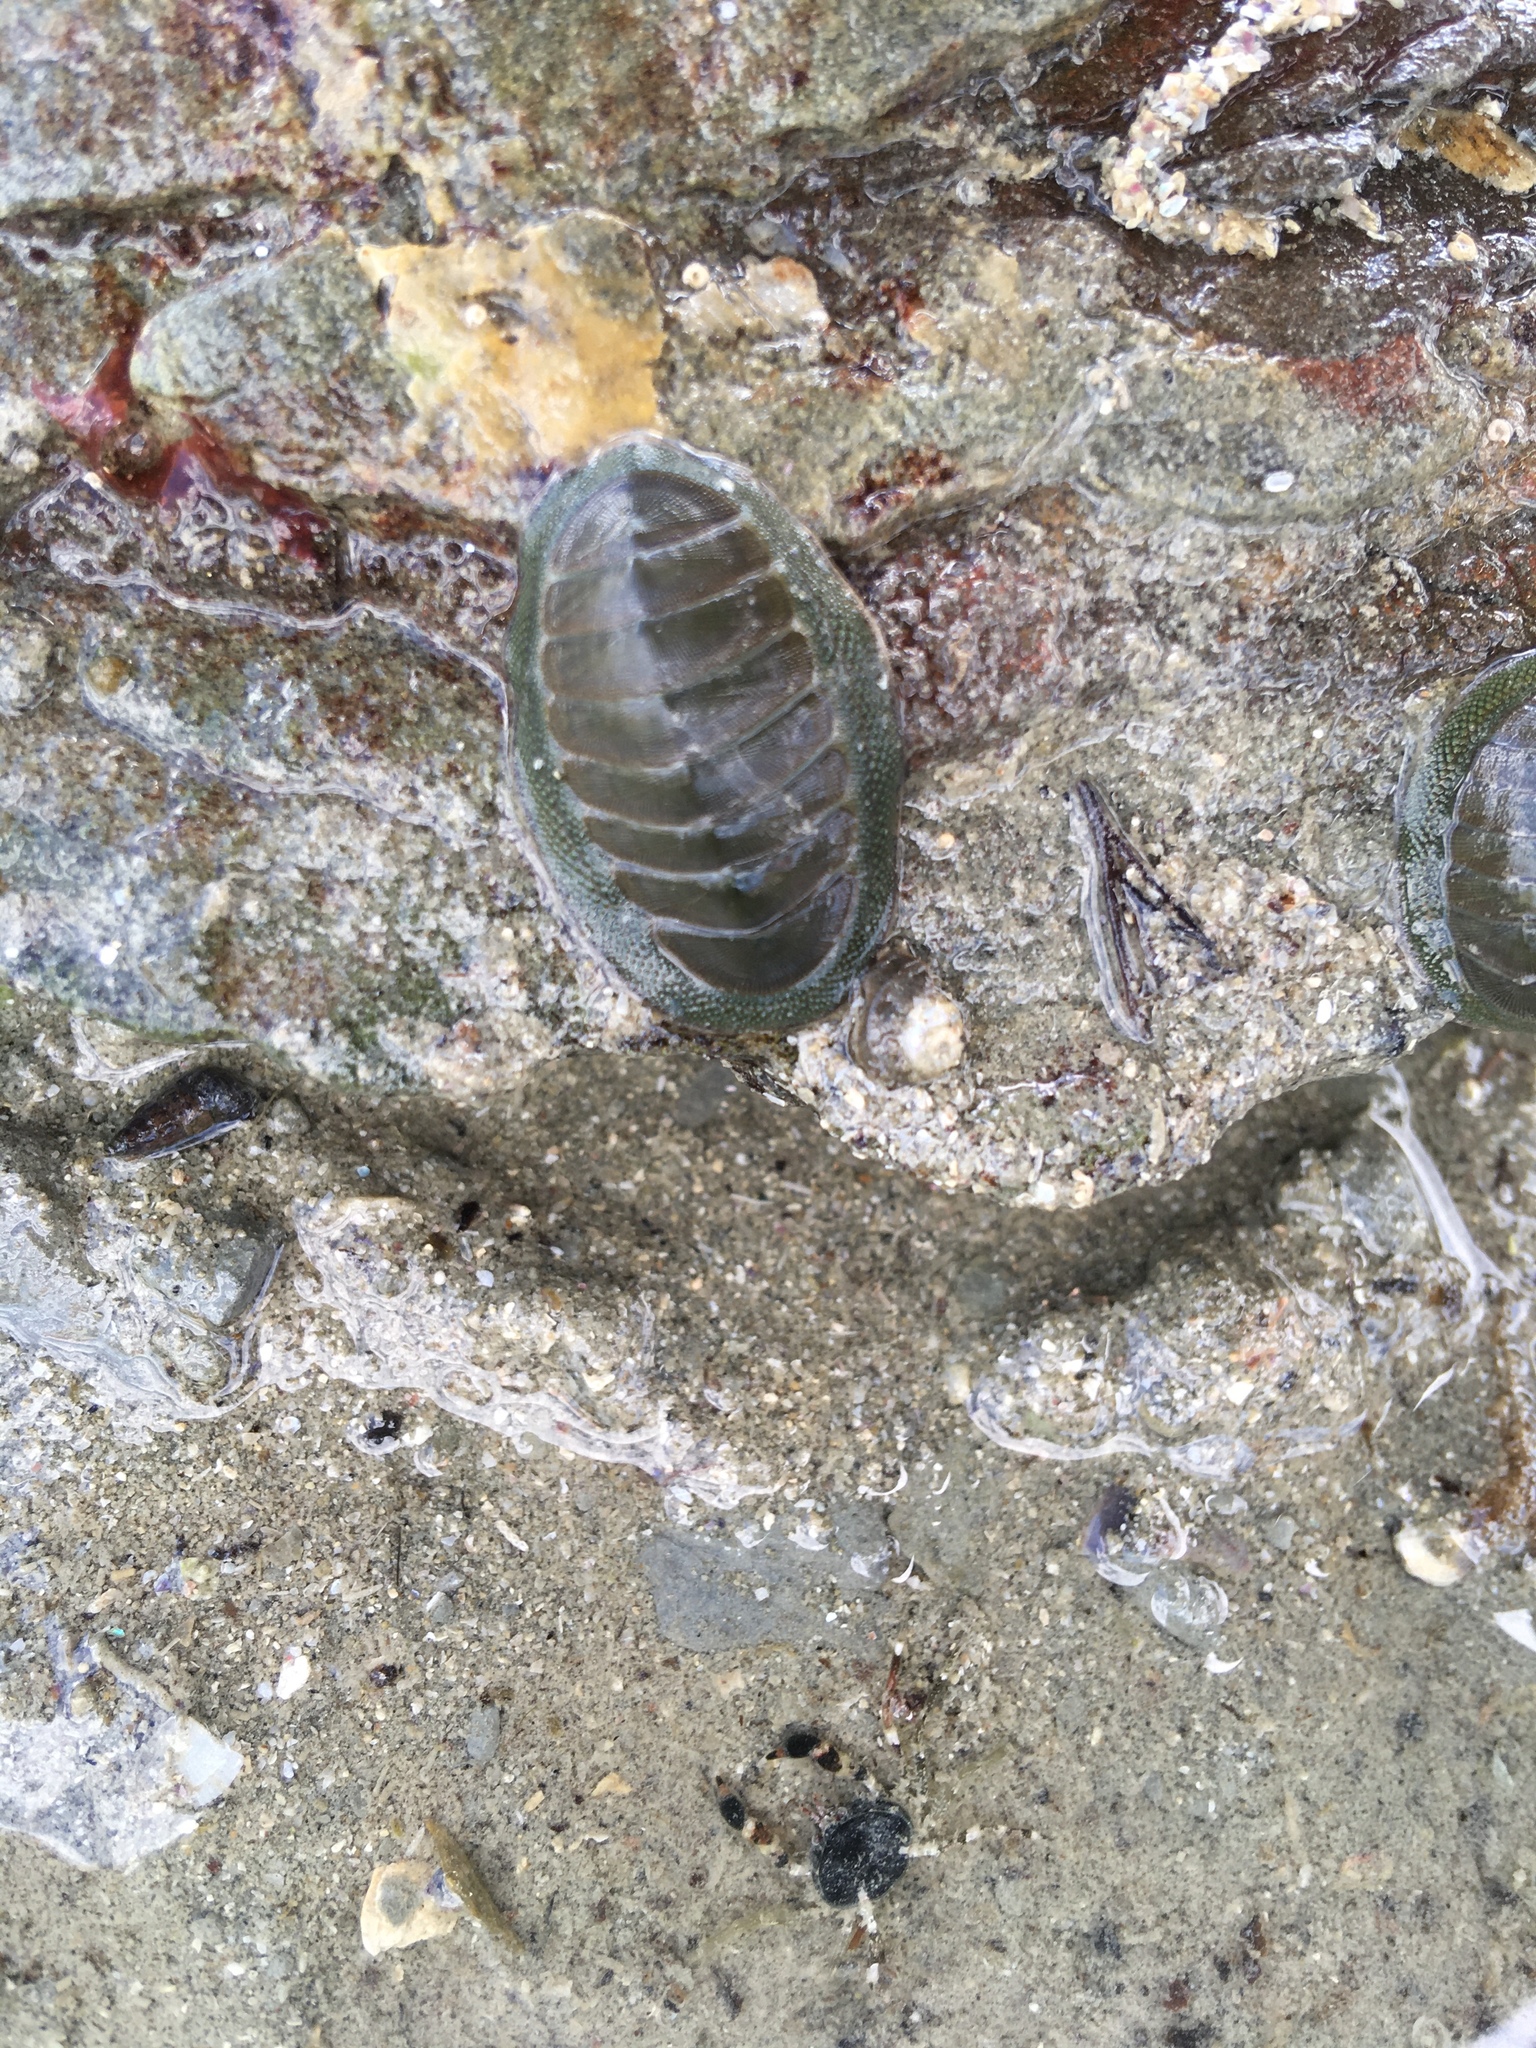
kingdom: Animalia
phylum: Mollusca
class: Polyplacophora
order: Chitonida
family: Chitonidae
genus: Chiton
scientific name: Chiton glaucus
